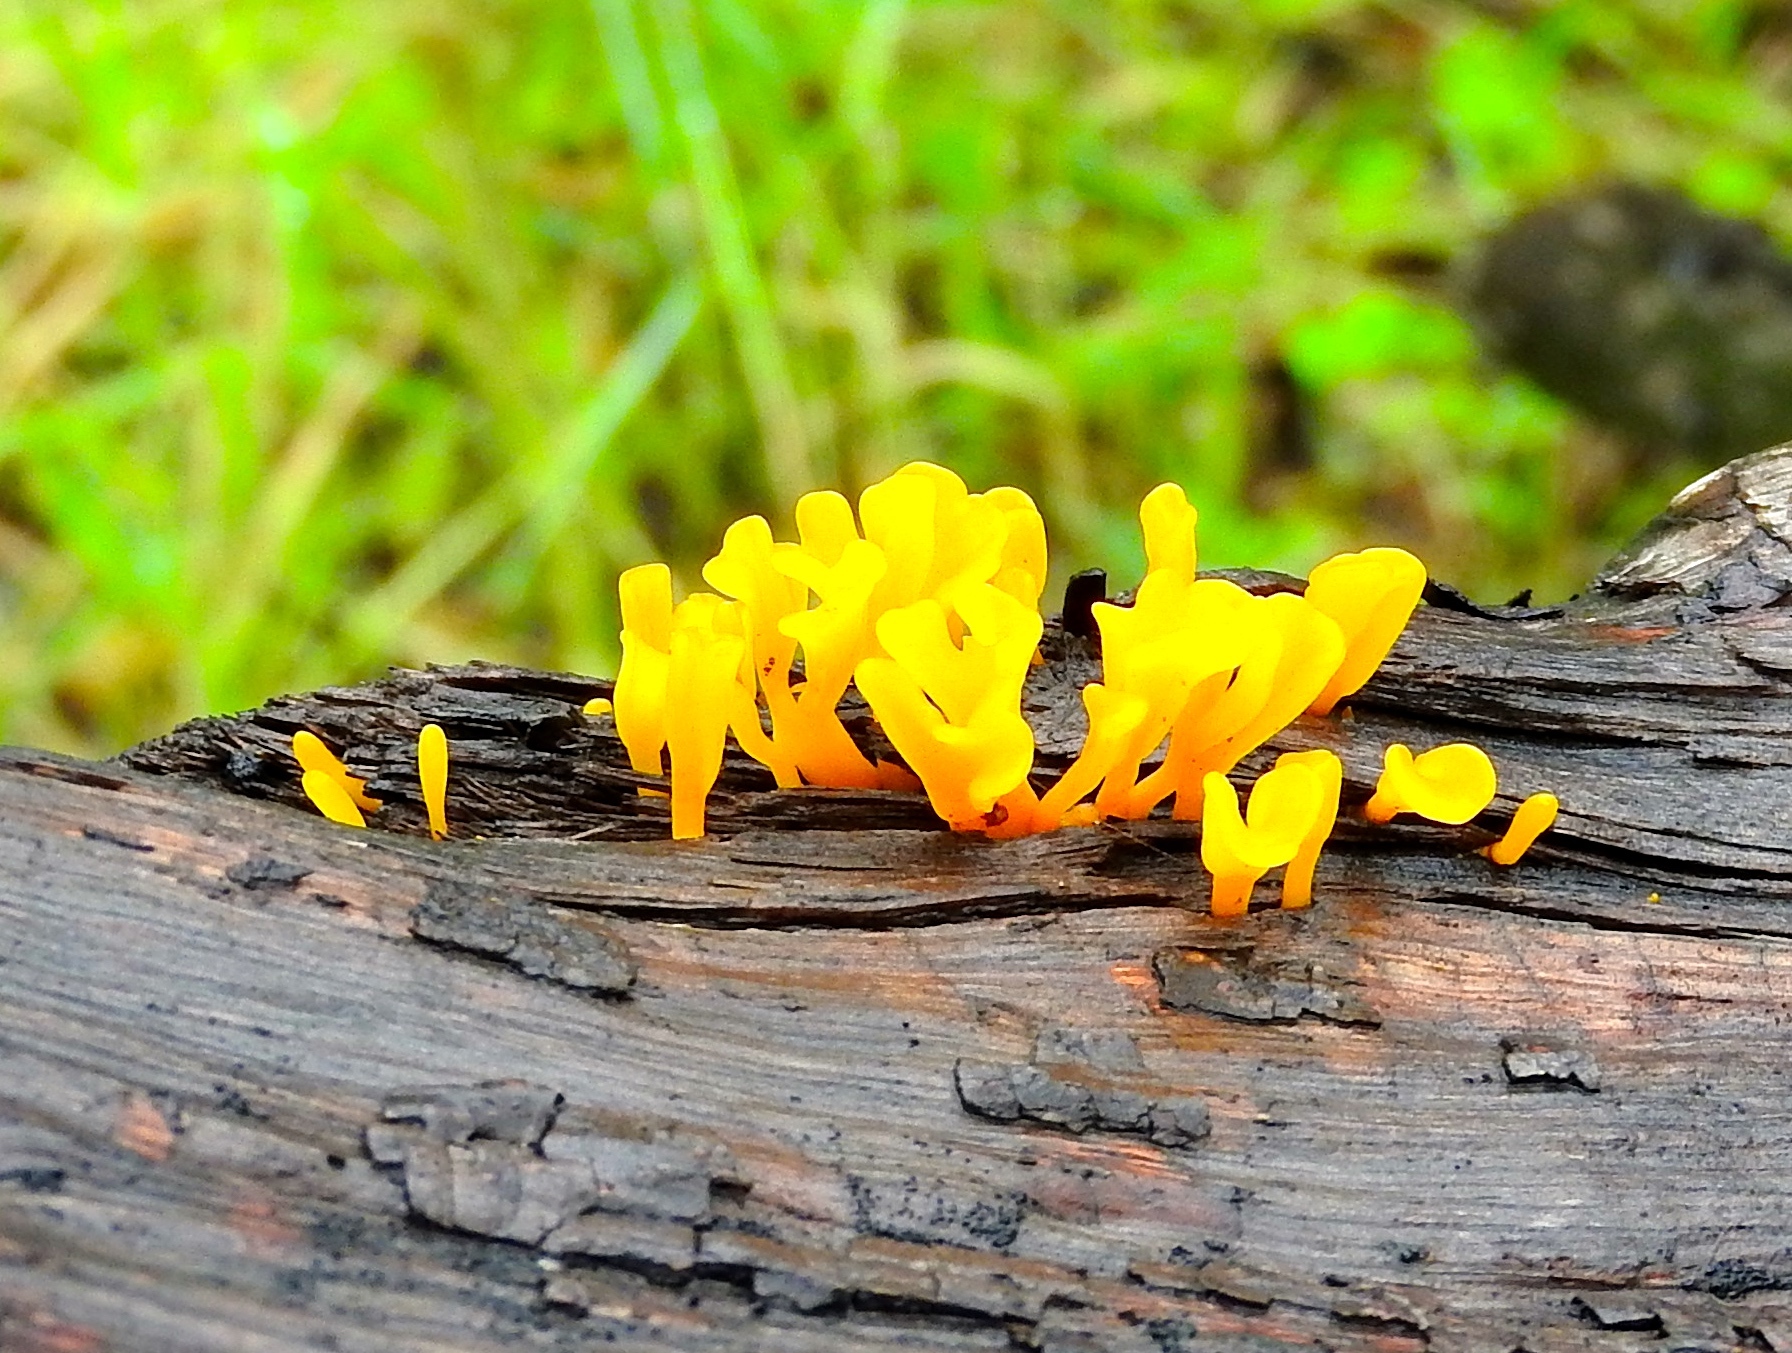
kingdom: Fungi
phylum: Basidiomycota
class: Dacrymycetes
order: Dacrymycetales
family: Dacrymycetaceae
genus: Dacrymyces
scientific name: Dacrymyces spathularius
